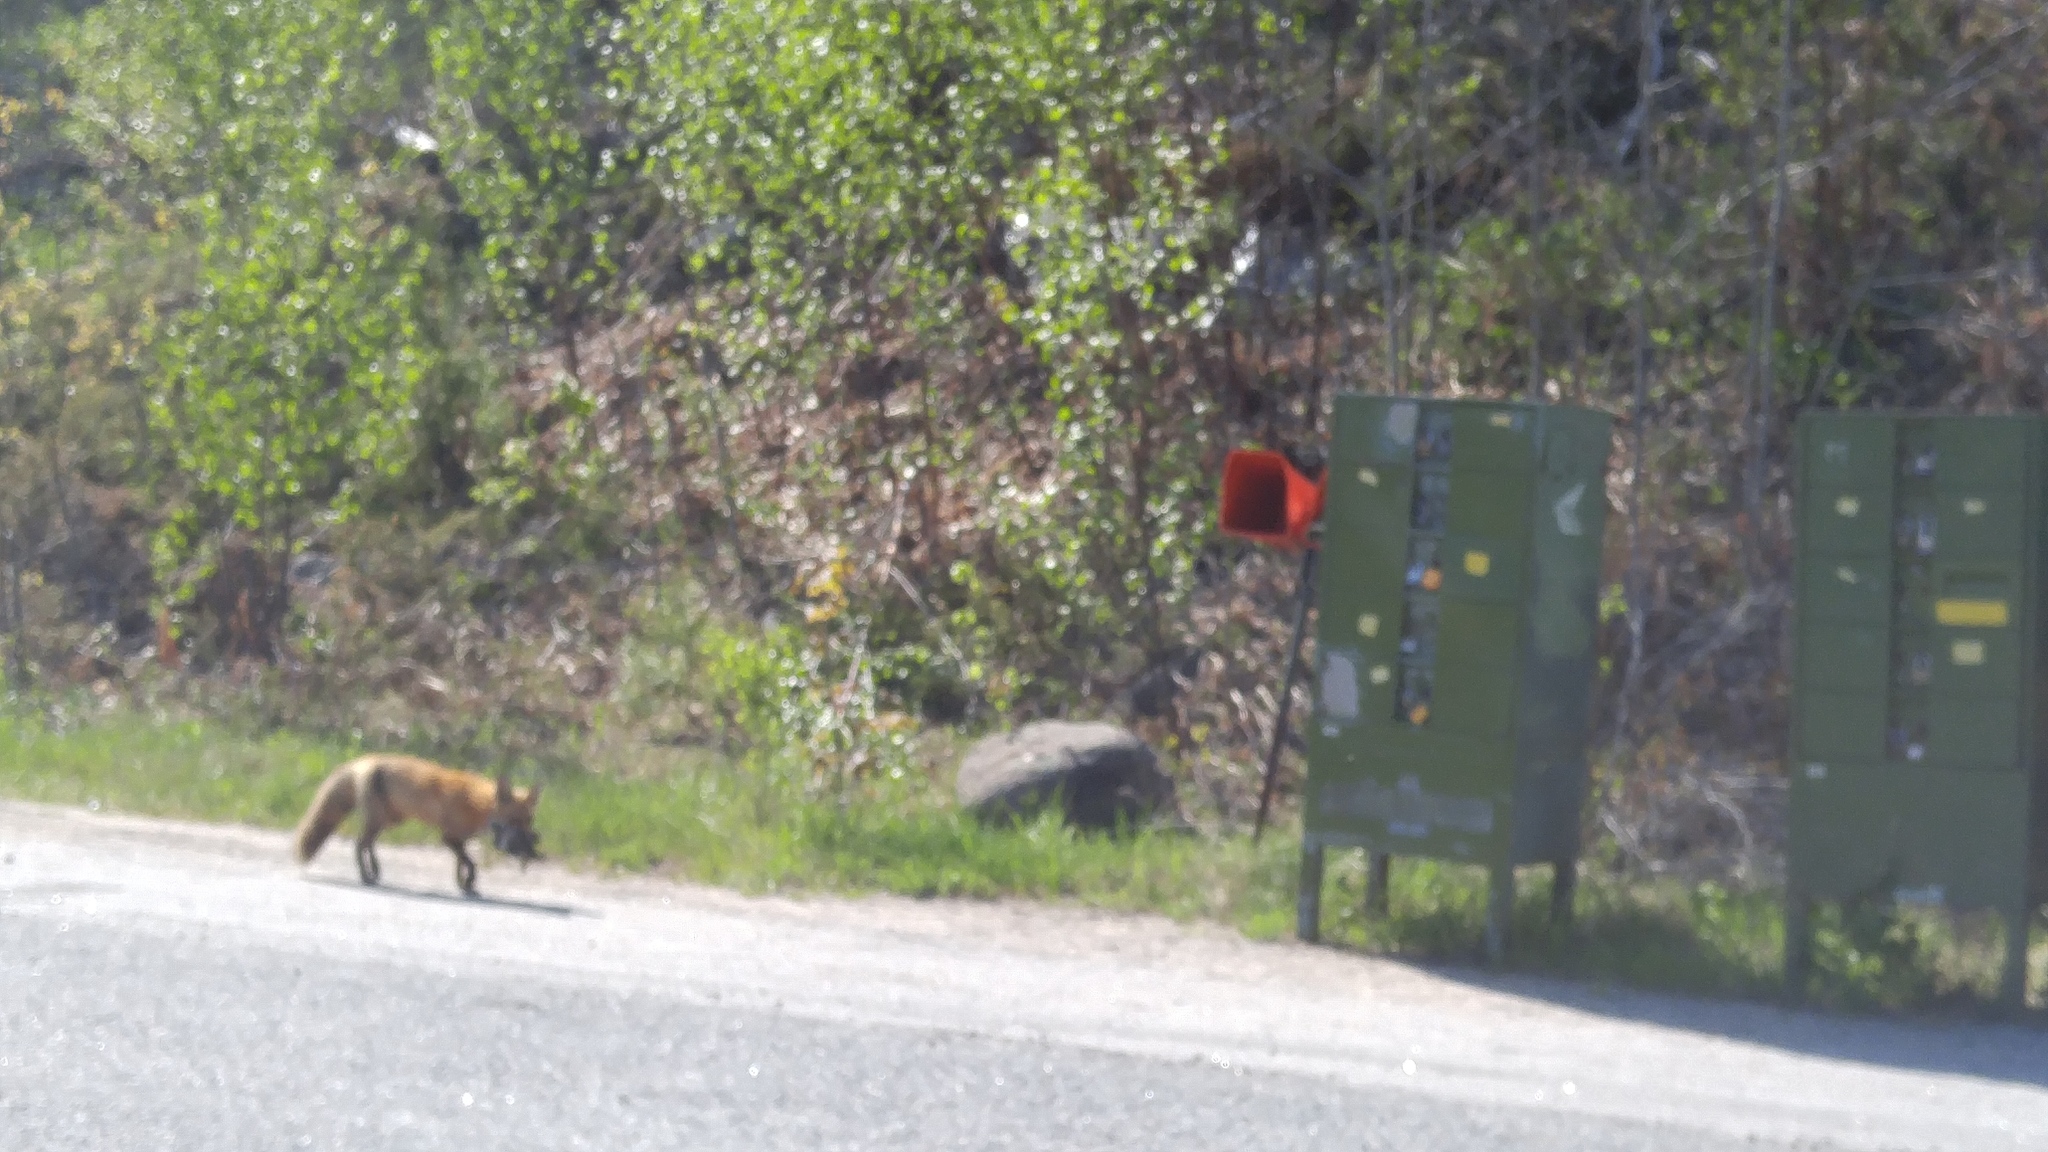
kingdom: Animalia
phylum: Chordata
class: Mammalia
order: Carnivora
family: Canidae
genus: Vulpes
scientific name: Vulpes vulpes
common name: Red fox
